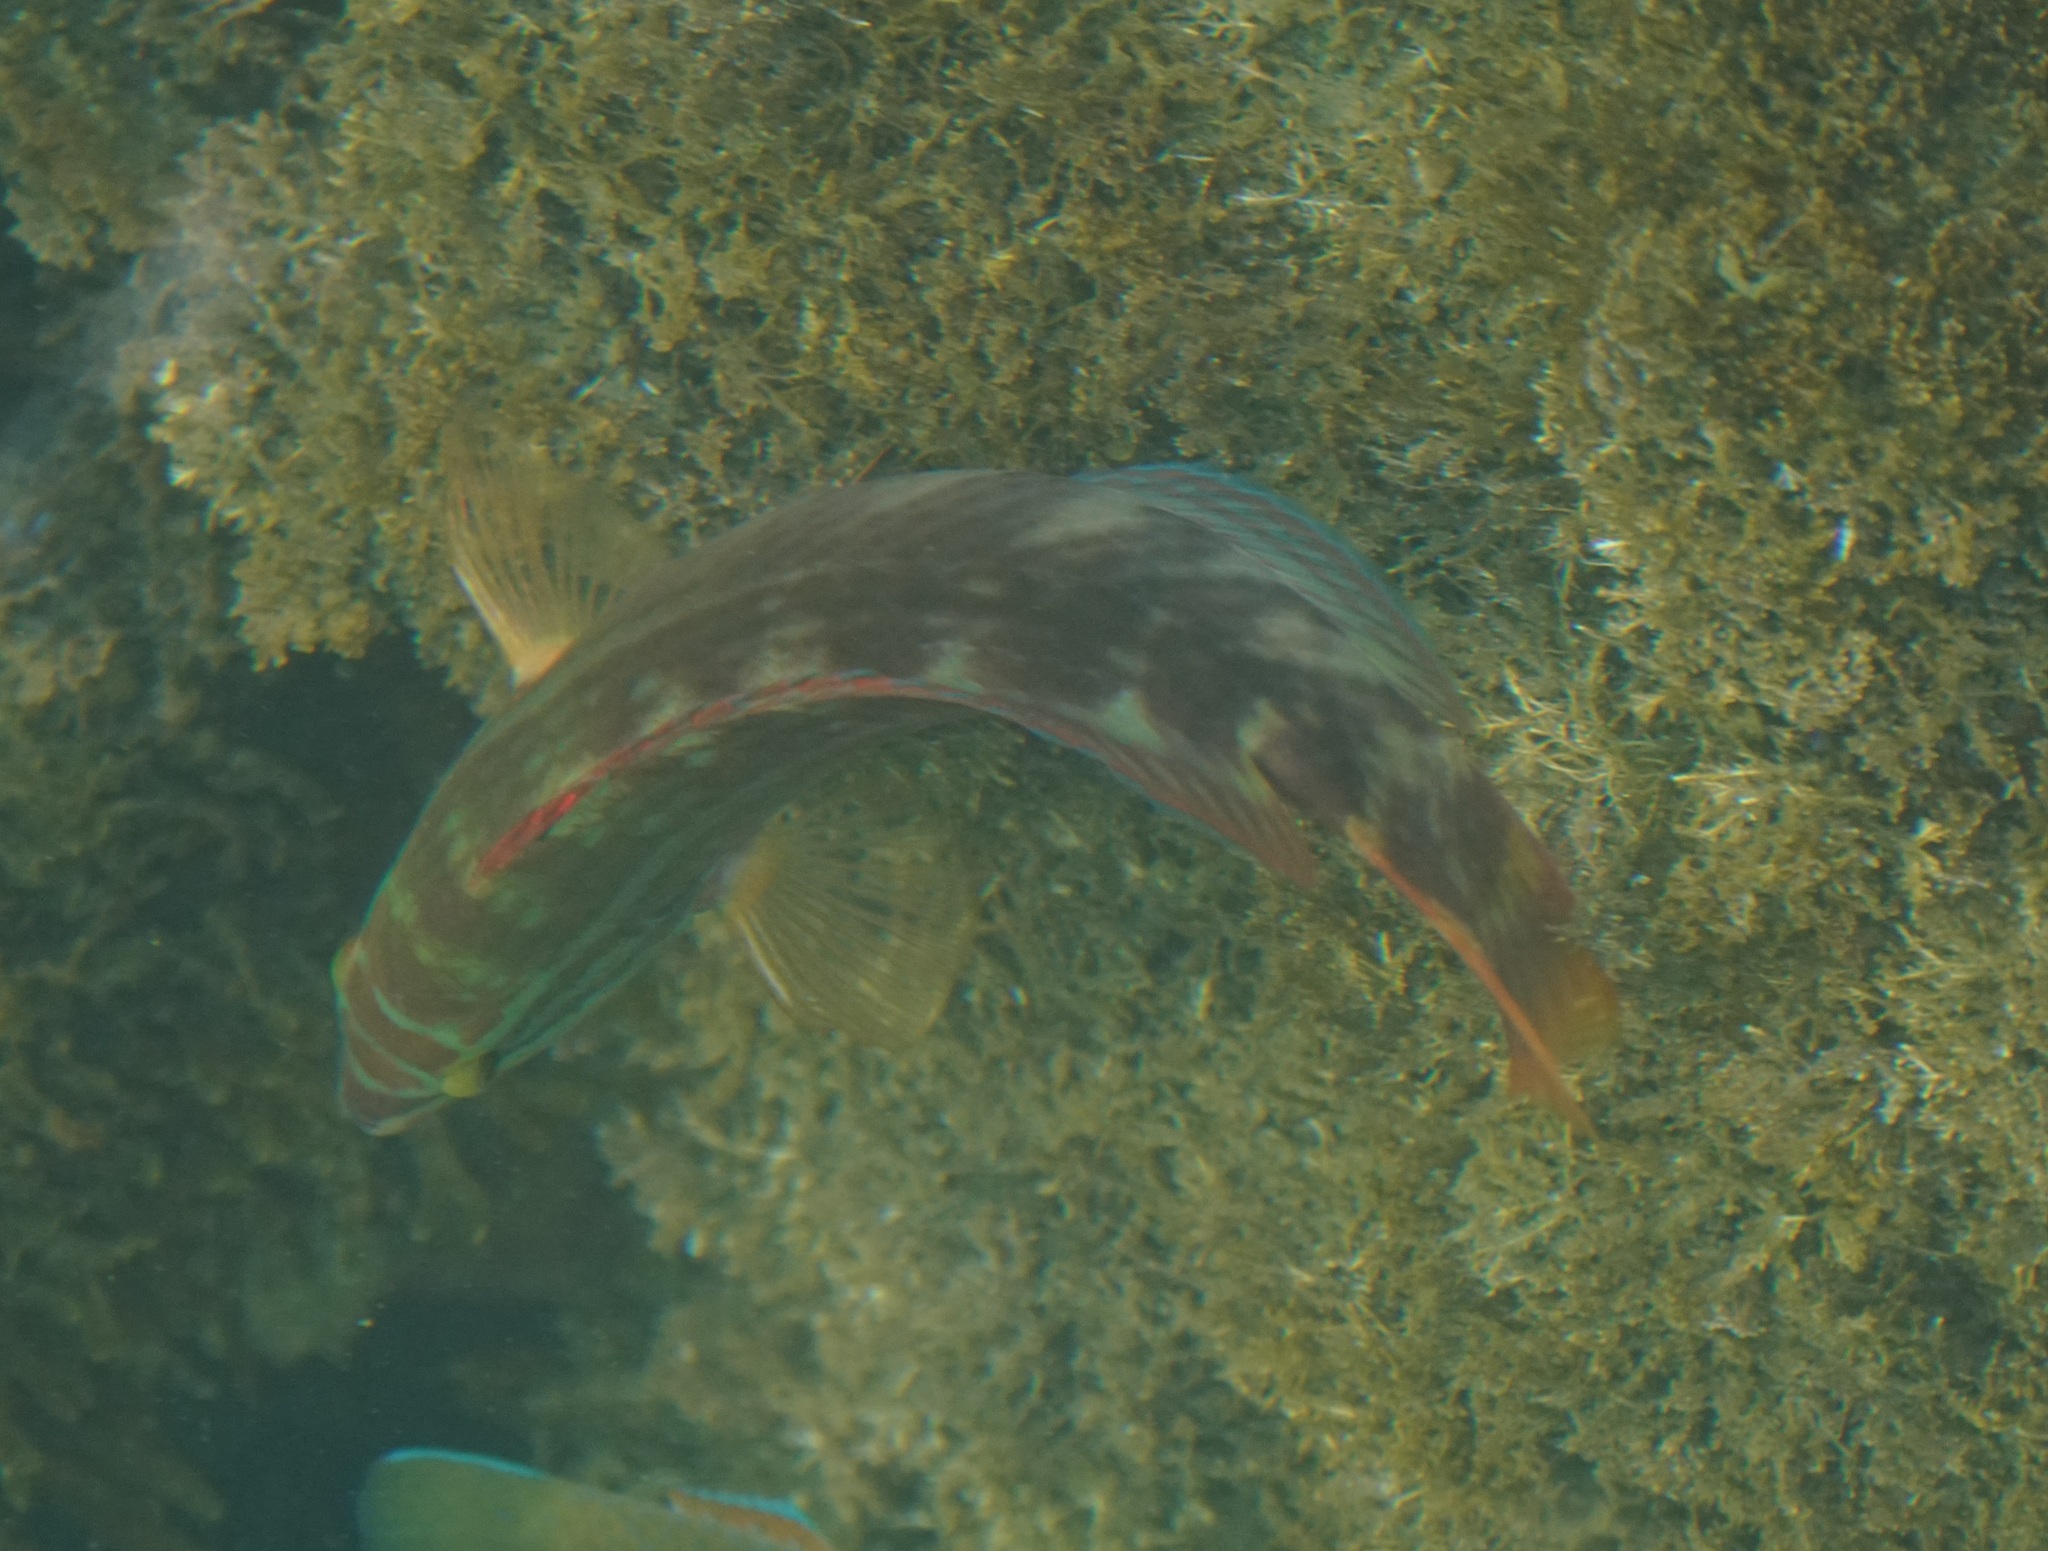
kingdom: Animalia
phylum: Chordata
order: Perciformes
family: Labridae
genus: Pseudolabrus
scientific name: Pseudolabrus guentheri
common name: Günther's wrasse
